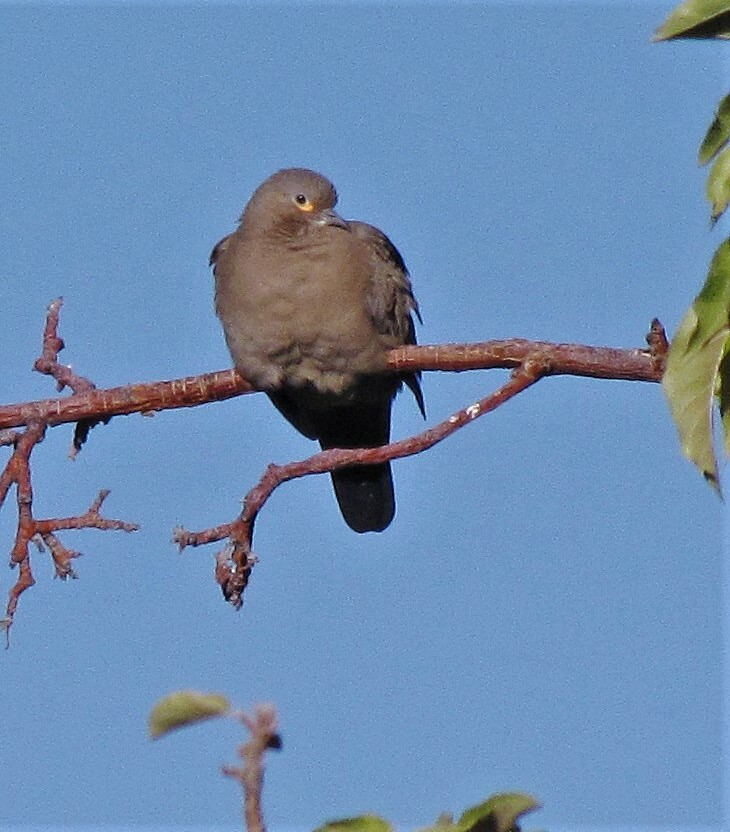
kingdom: Animalia
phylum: Chordata
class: Aves
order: Columbiformes
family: Columbidae
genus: Metriopelia
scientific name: Metriopelia melanoptera
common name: Black-winged ground dove
